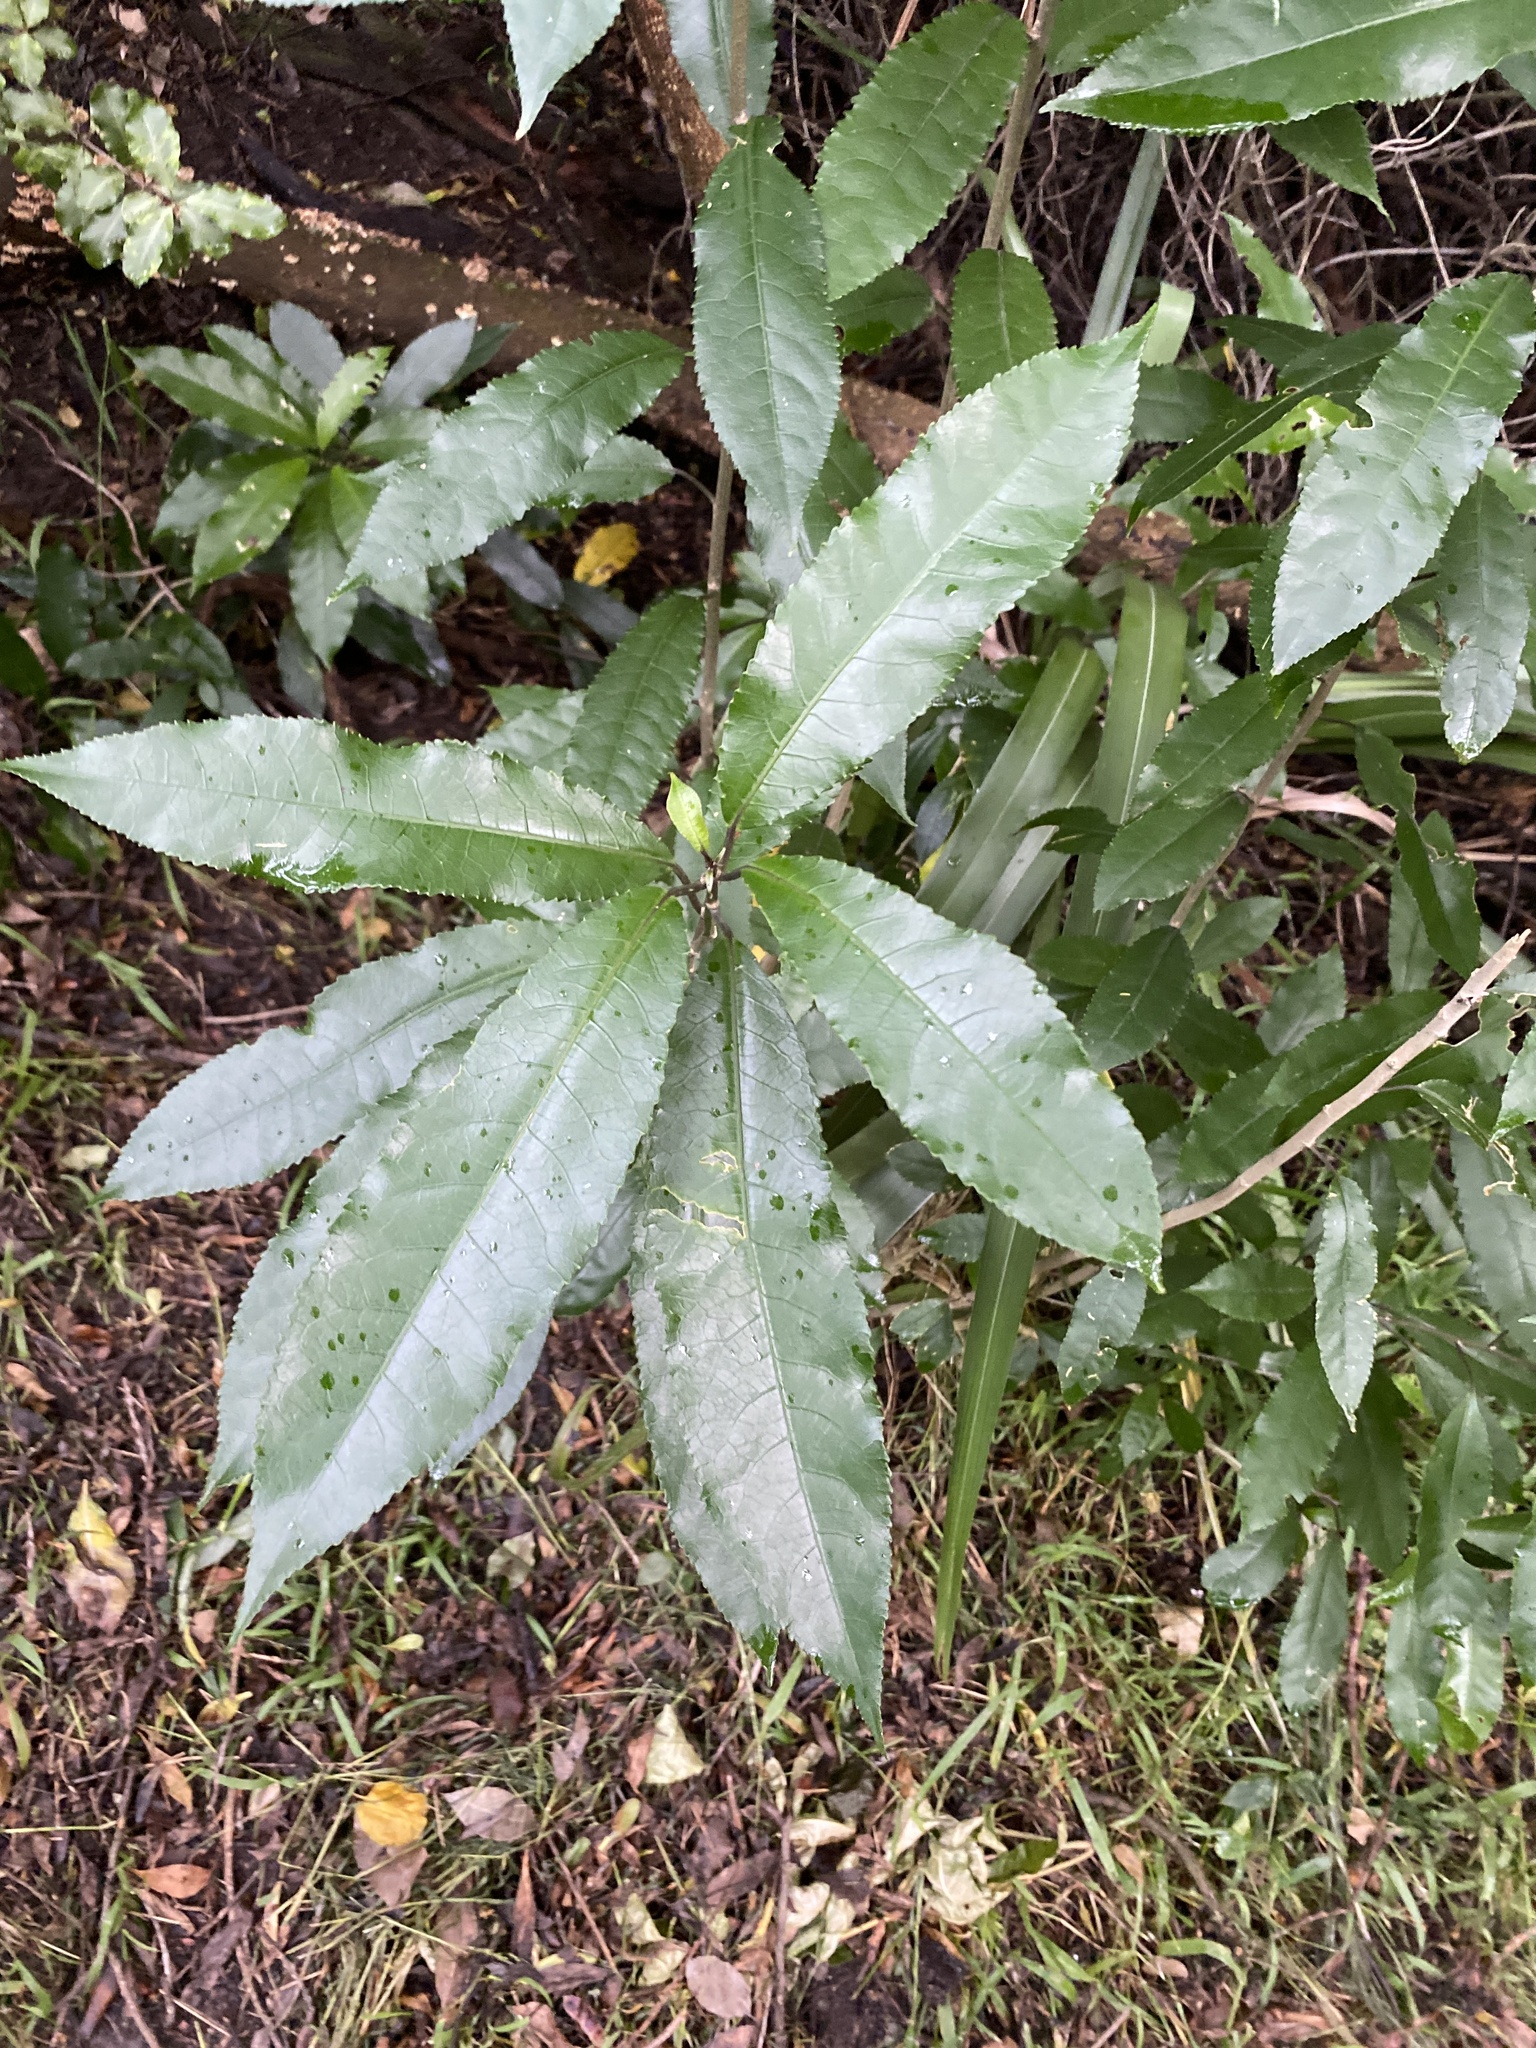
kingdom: Plantae
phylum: Tracheophyta
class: Magnoliopsida
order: Malpighiales
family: Violaceae
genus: Melicytus
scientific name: Melicytus ramiflorus
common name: Mahoe
